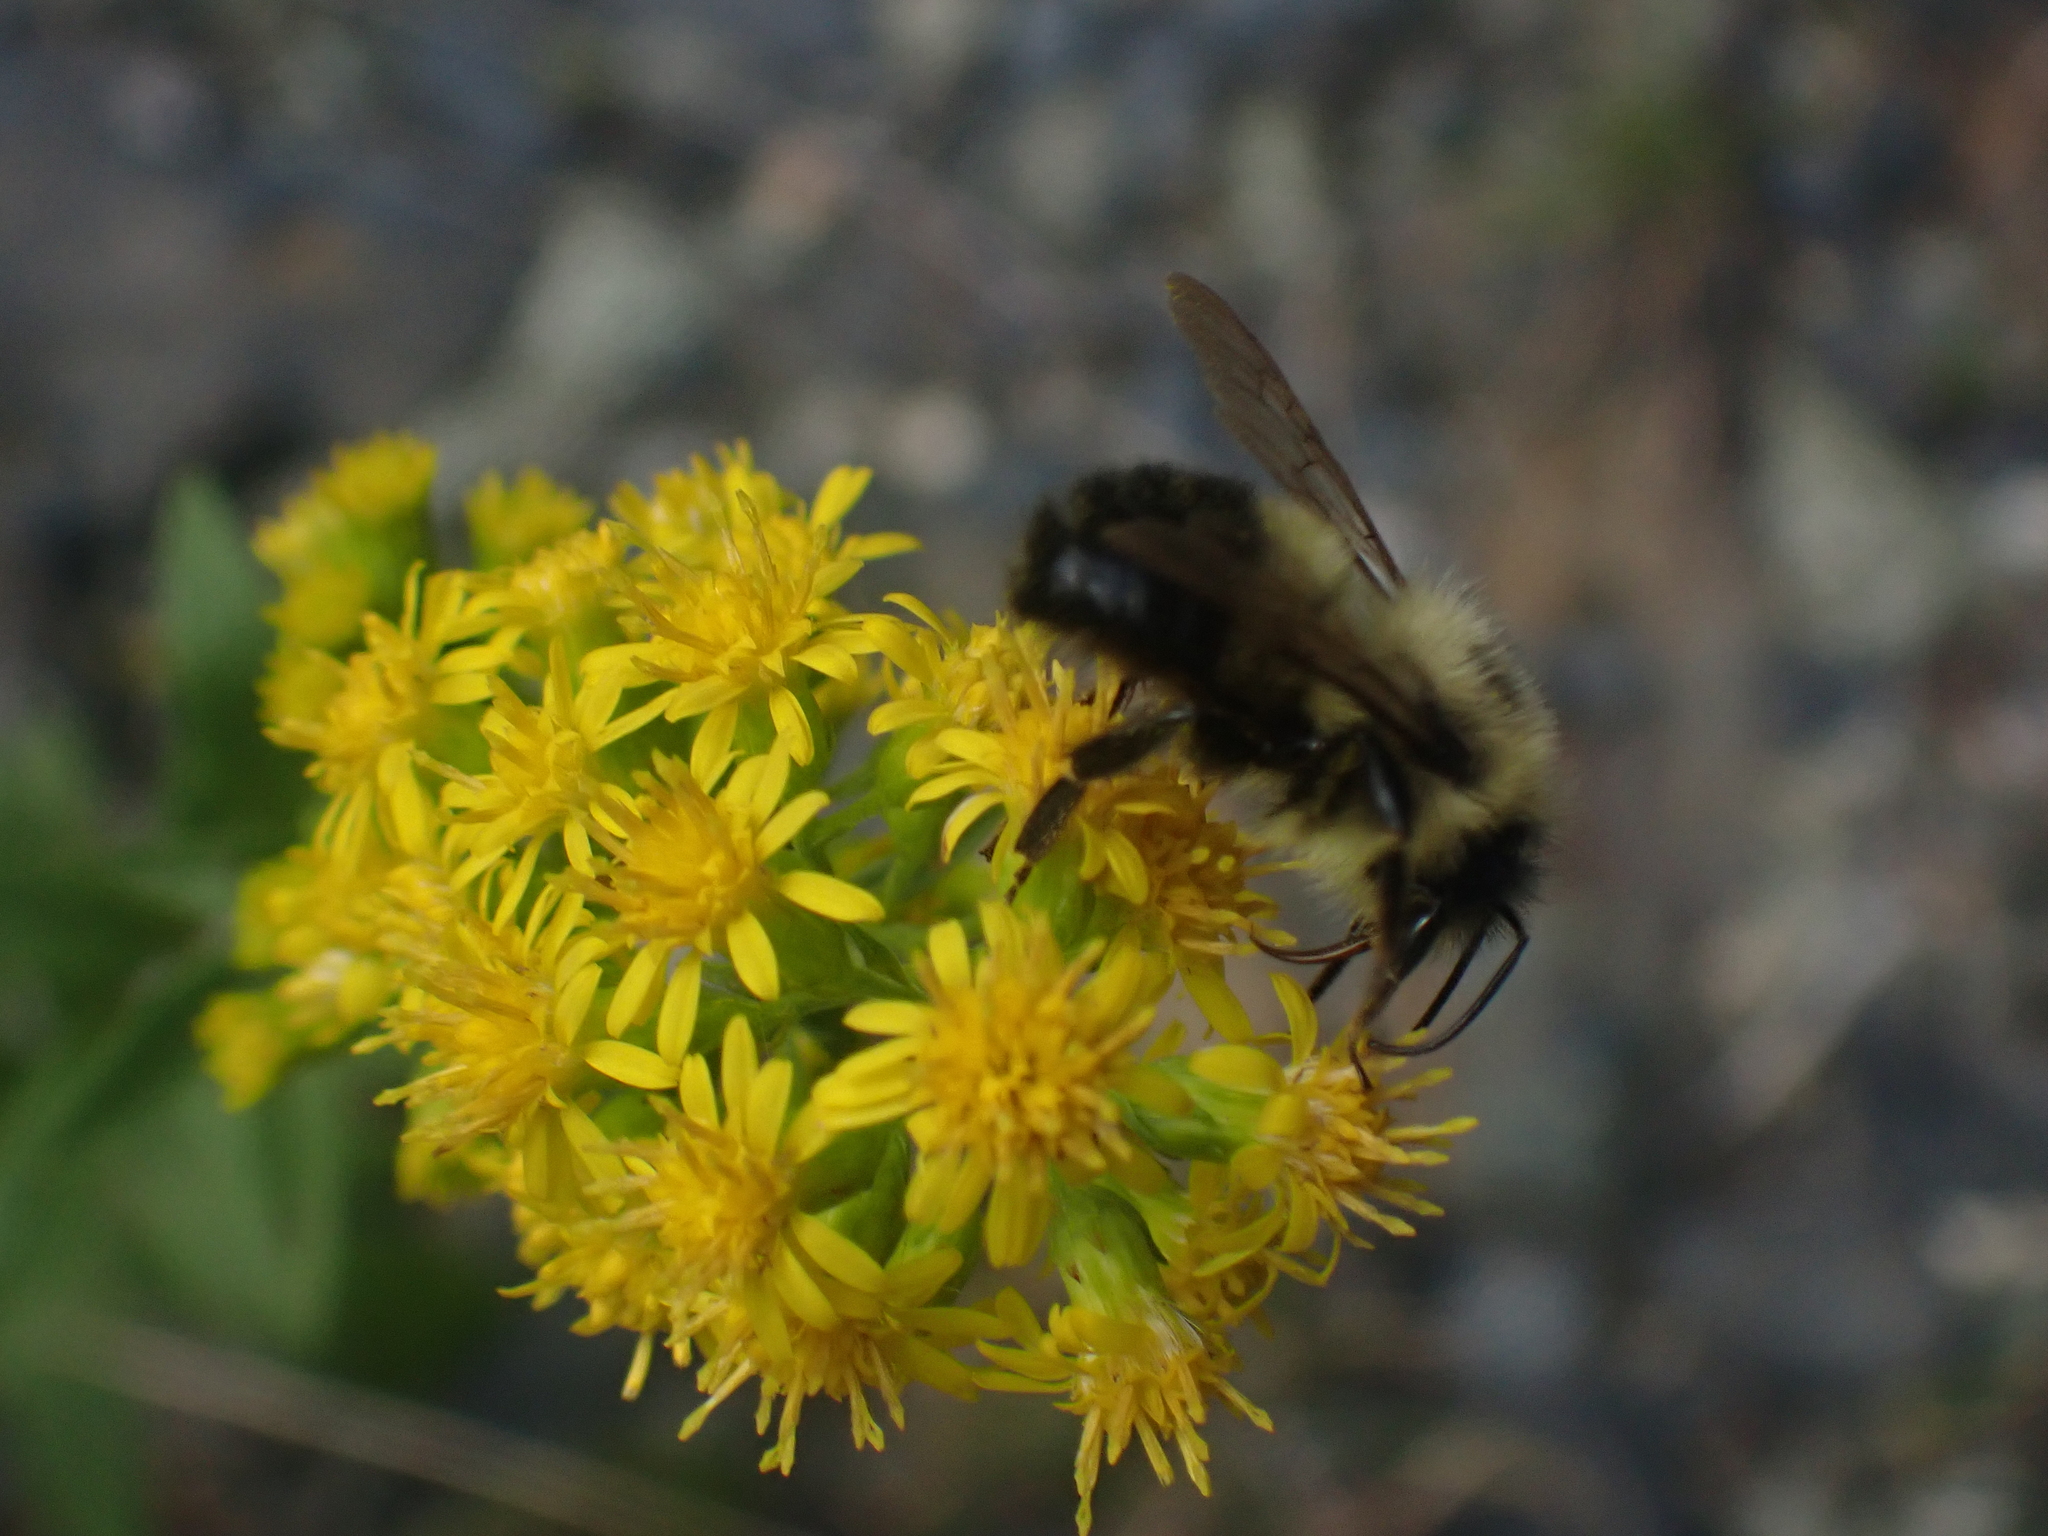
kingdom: Animalia
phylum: Arthropoda
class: Insecta
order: Hymenoptera
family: Apidae
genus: Bombus
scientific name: Bombus vagans
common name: Half-black bumble bee
